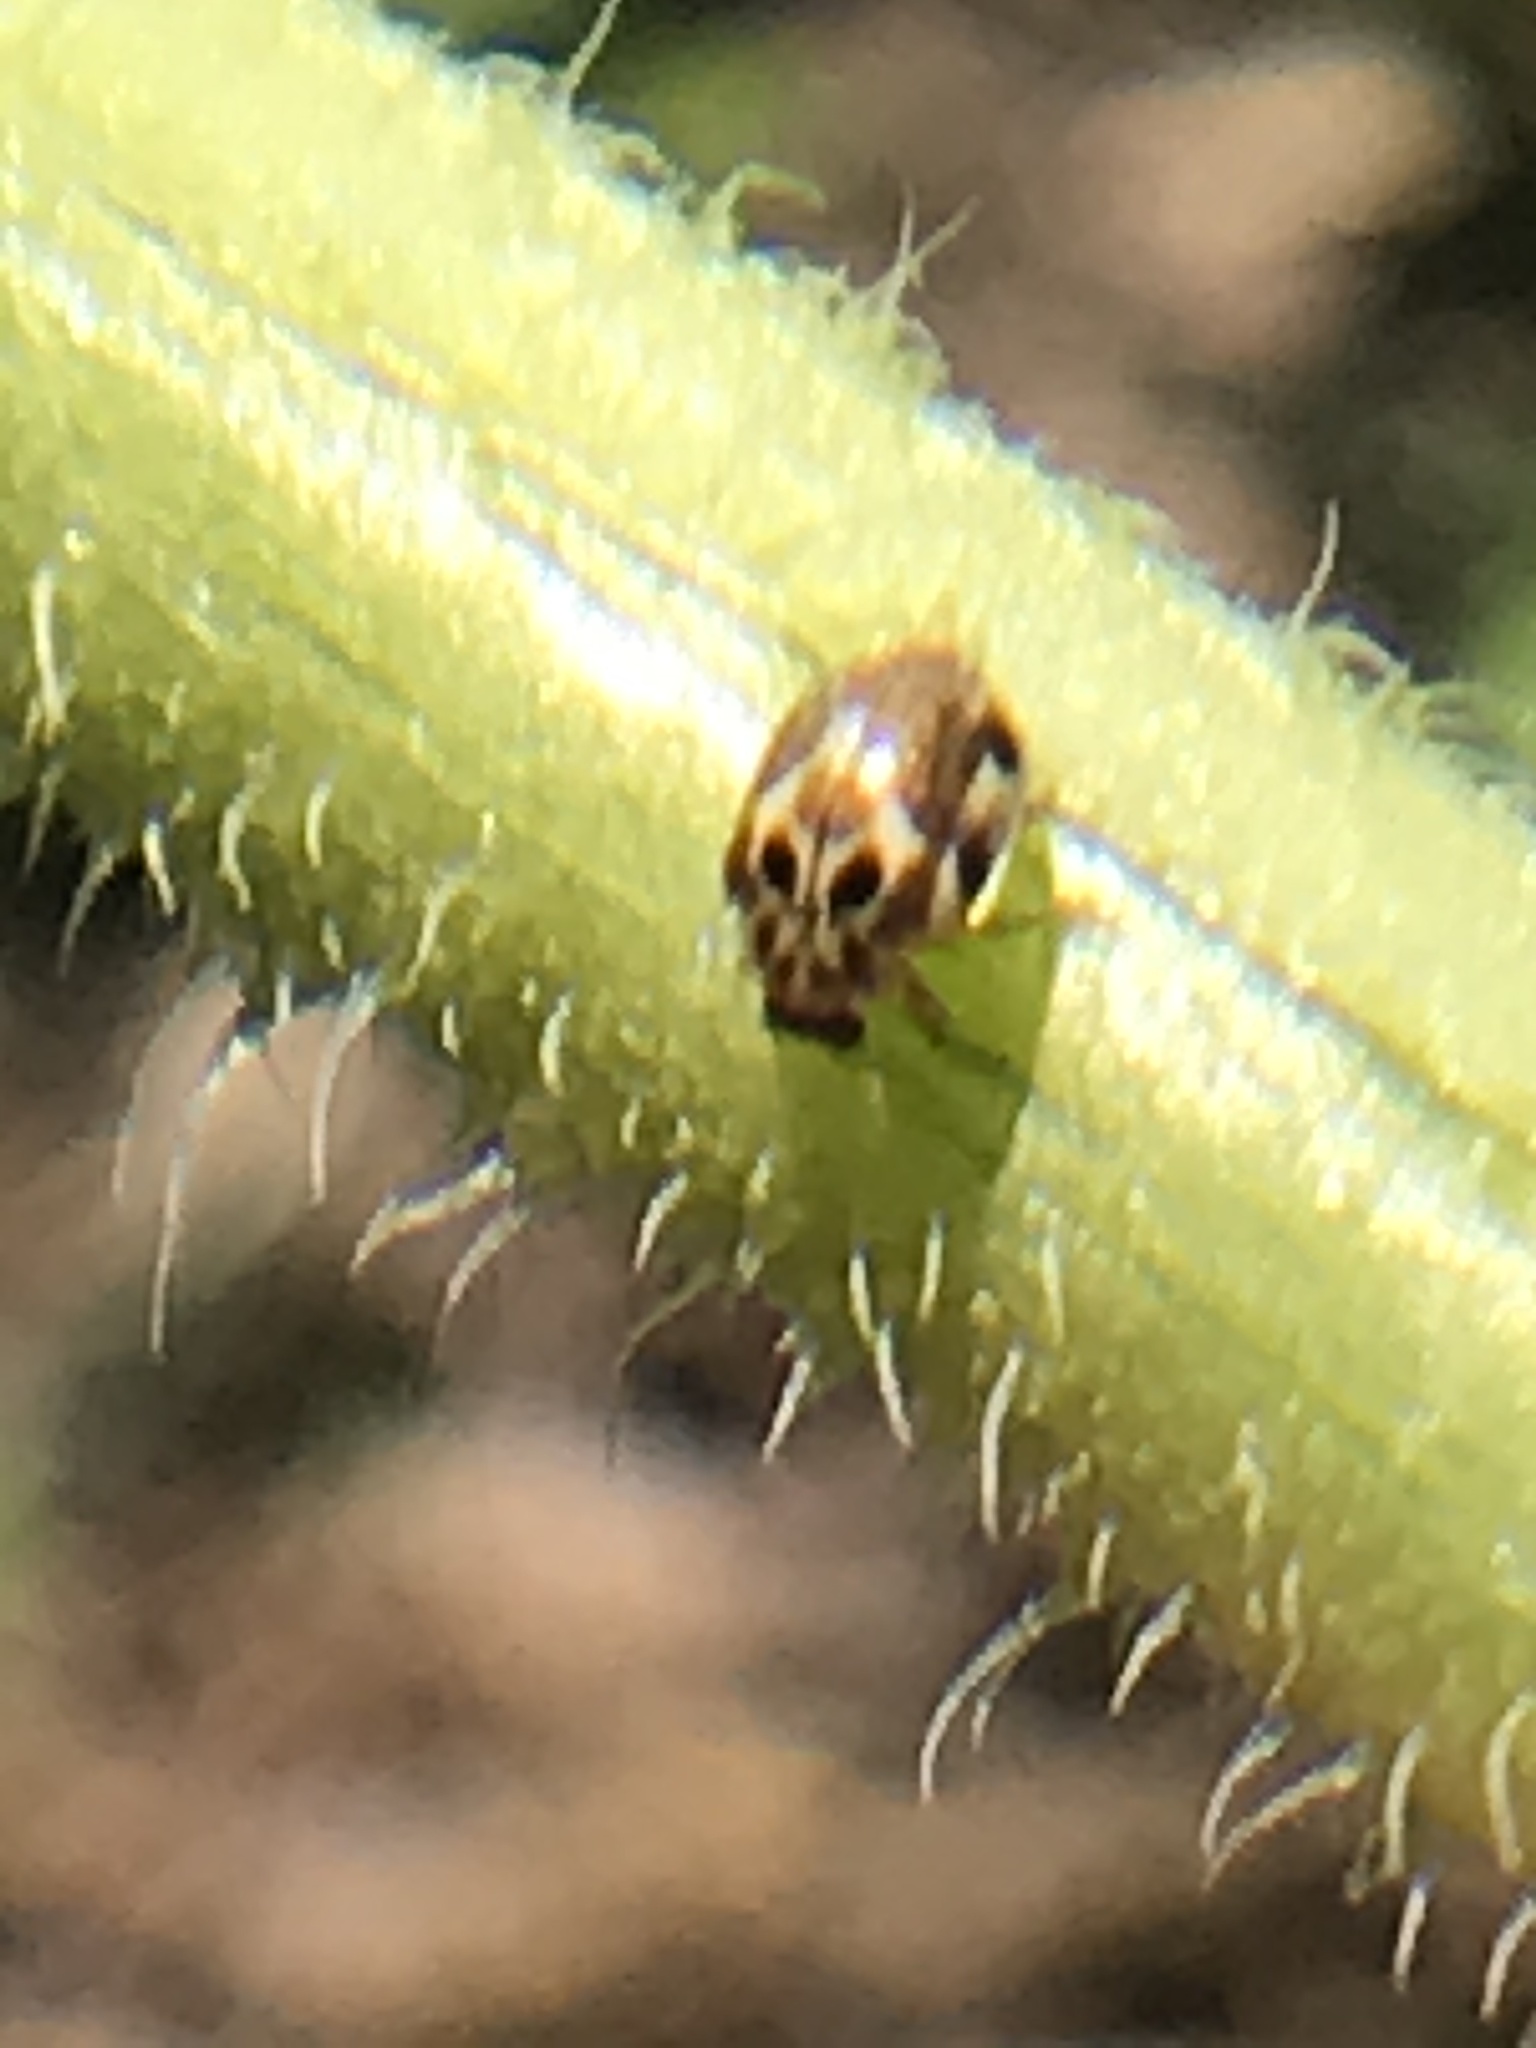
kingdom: Animalia
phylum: Arthropoda
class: Insecta
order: Coleoptera
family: Coccinellidae
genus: Psyllobora
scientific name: Psyllobora vigintimaculata
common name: Ladybird beetle
